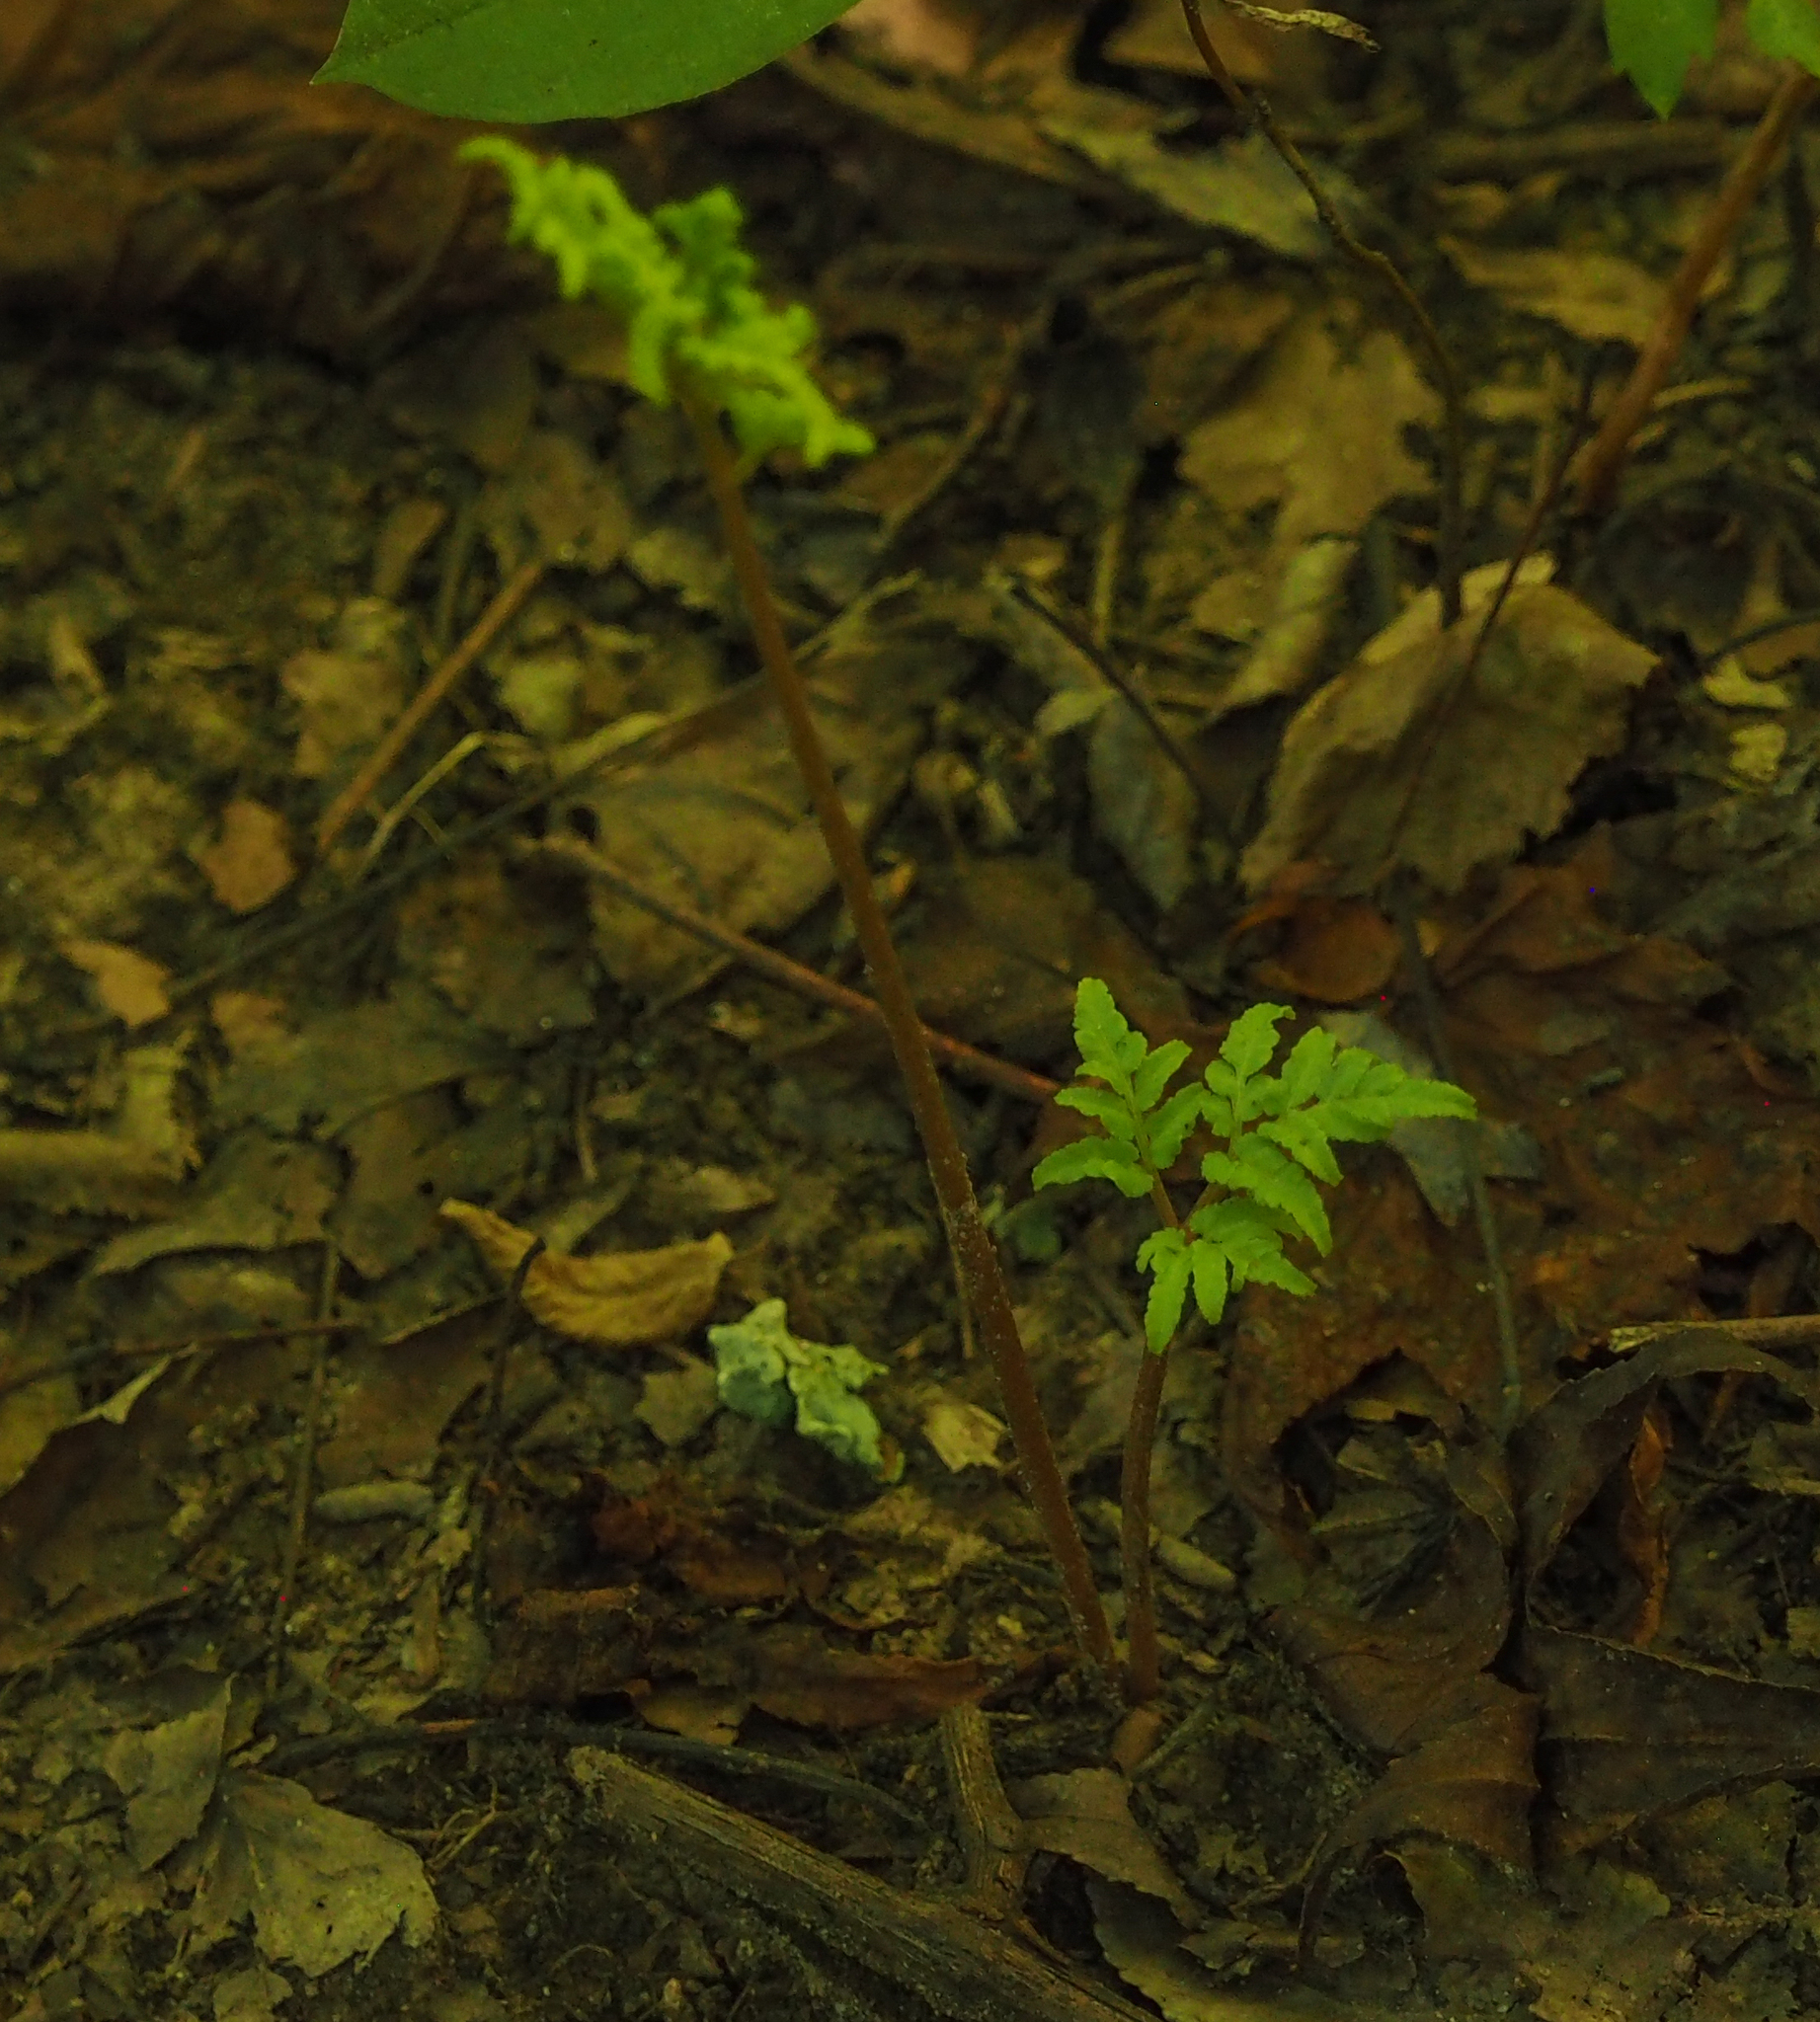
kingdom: Plantae
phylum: Tracheophyta
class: Polypodiopsida
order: Ophioglossales
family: Ophioglossaceae
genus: Sceptridium
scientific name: Sceptridium dissectum
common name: Cut-leaved grapefern
